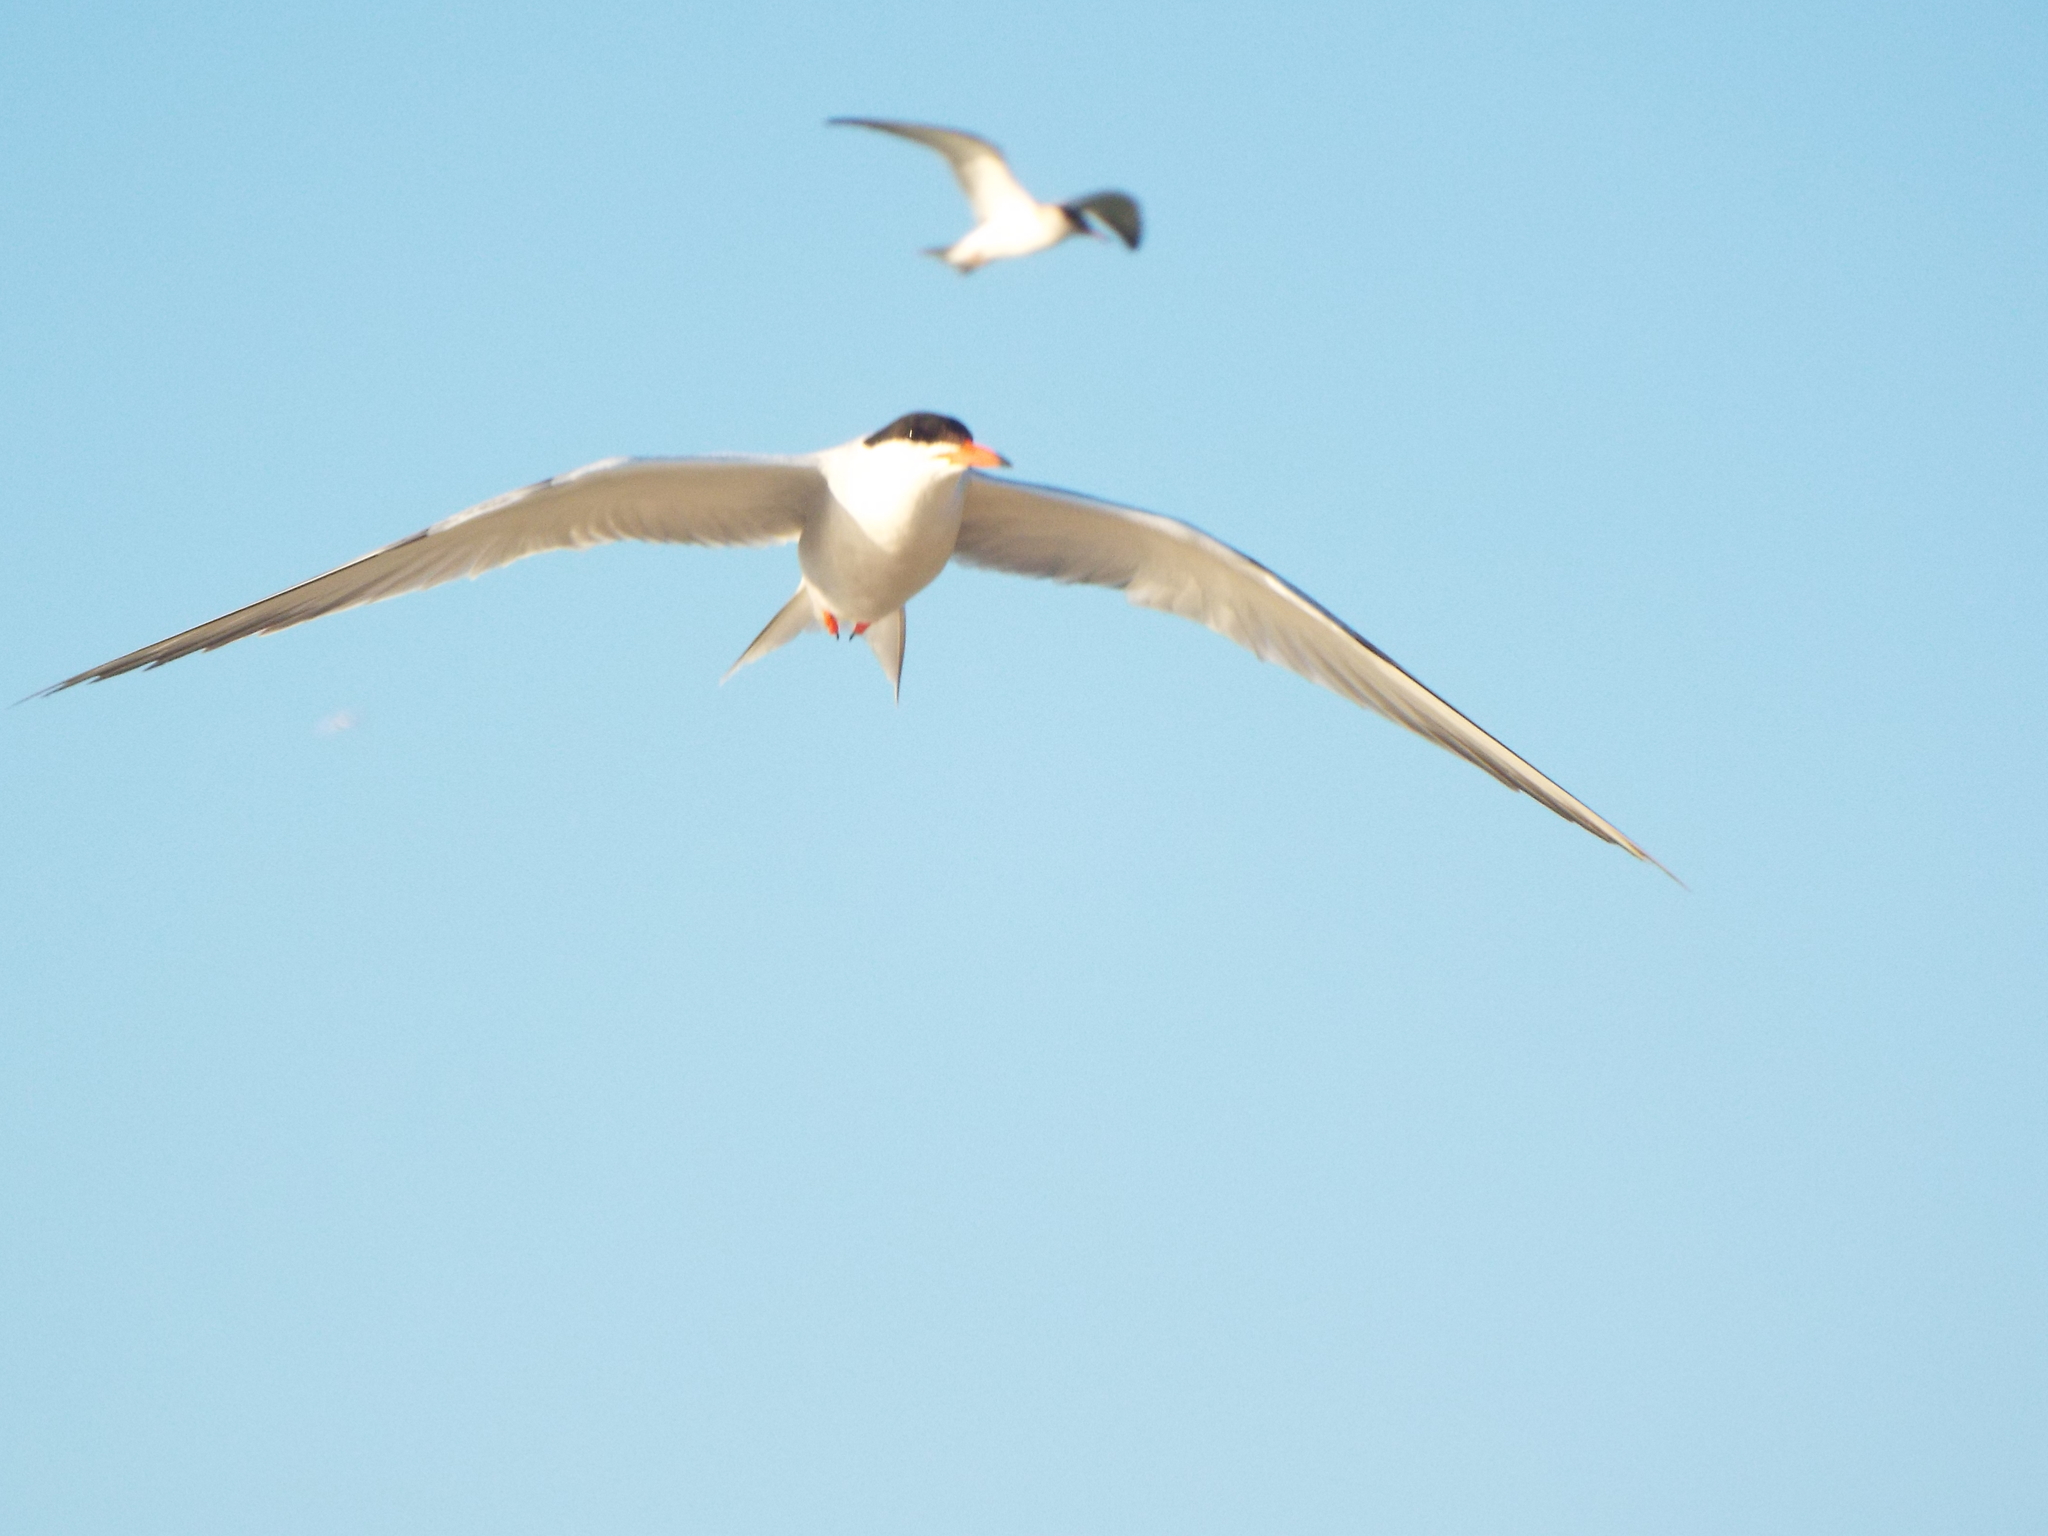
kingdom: Animalia
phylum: Chordata
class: Aves
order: Charadriiformes
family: Laridae
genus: Sterna
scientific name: Sterna hirundo
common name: Common tern
